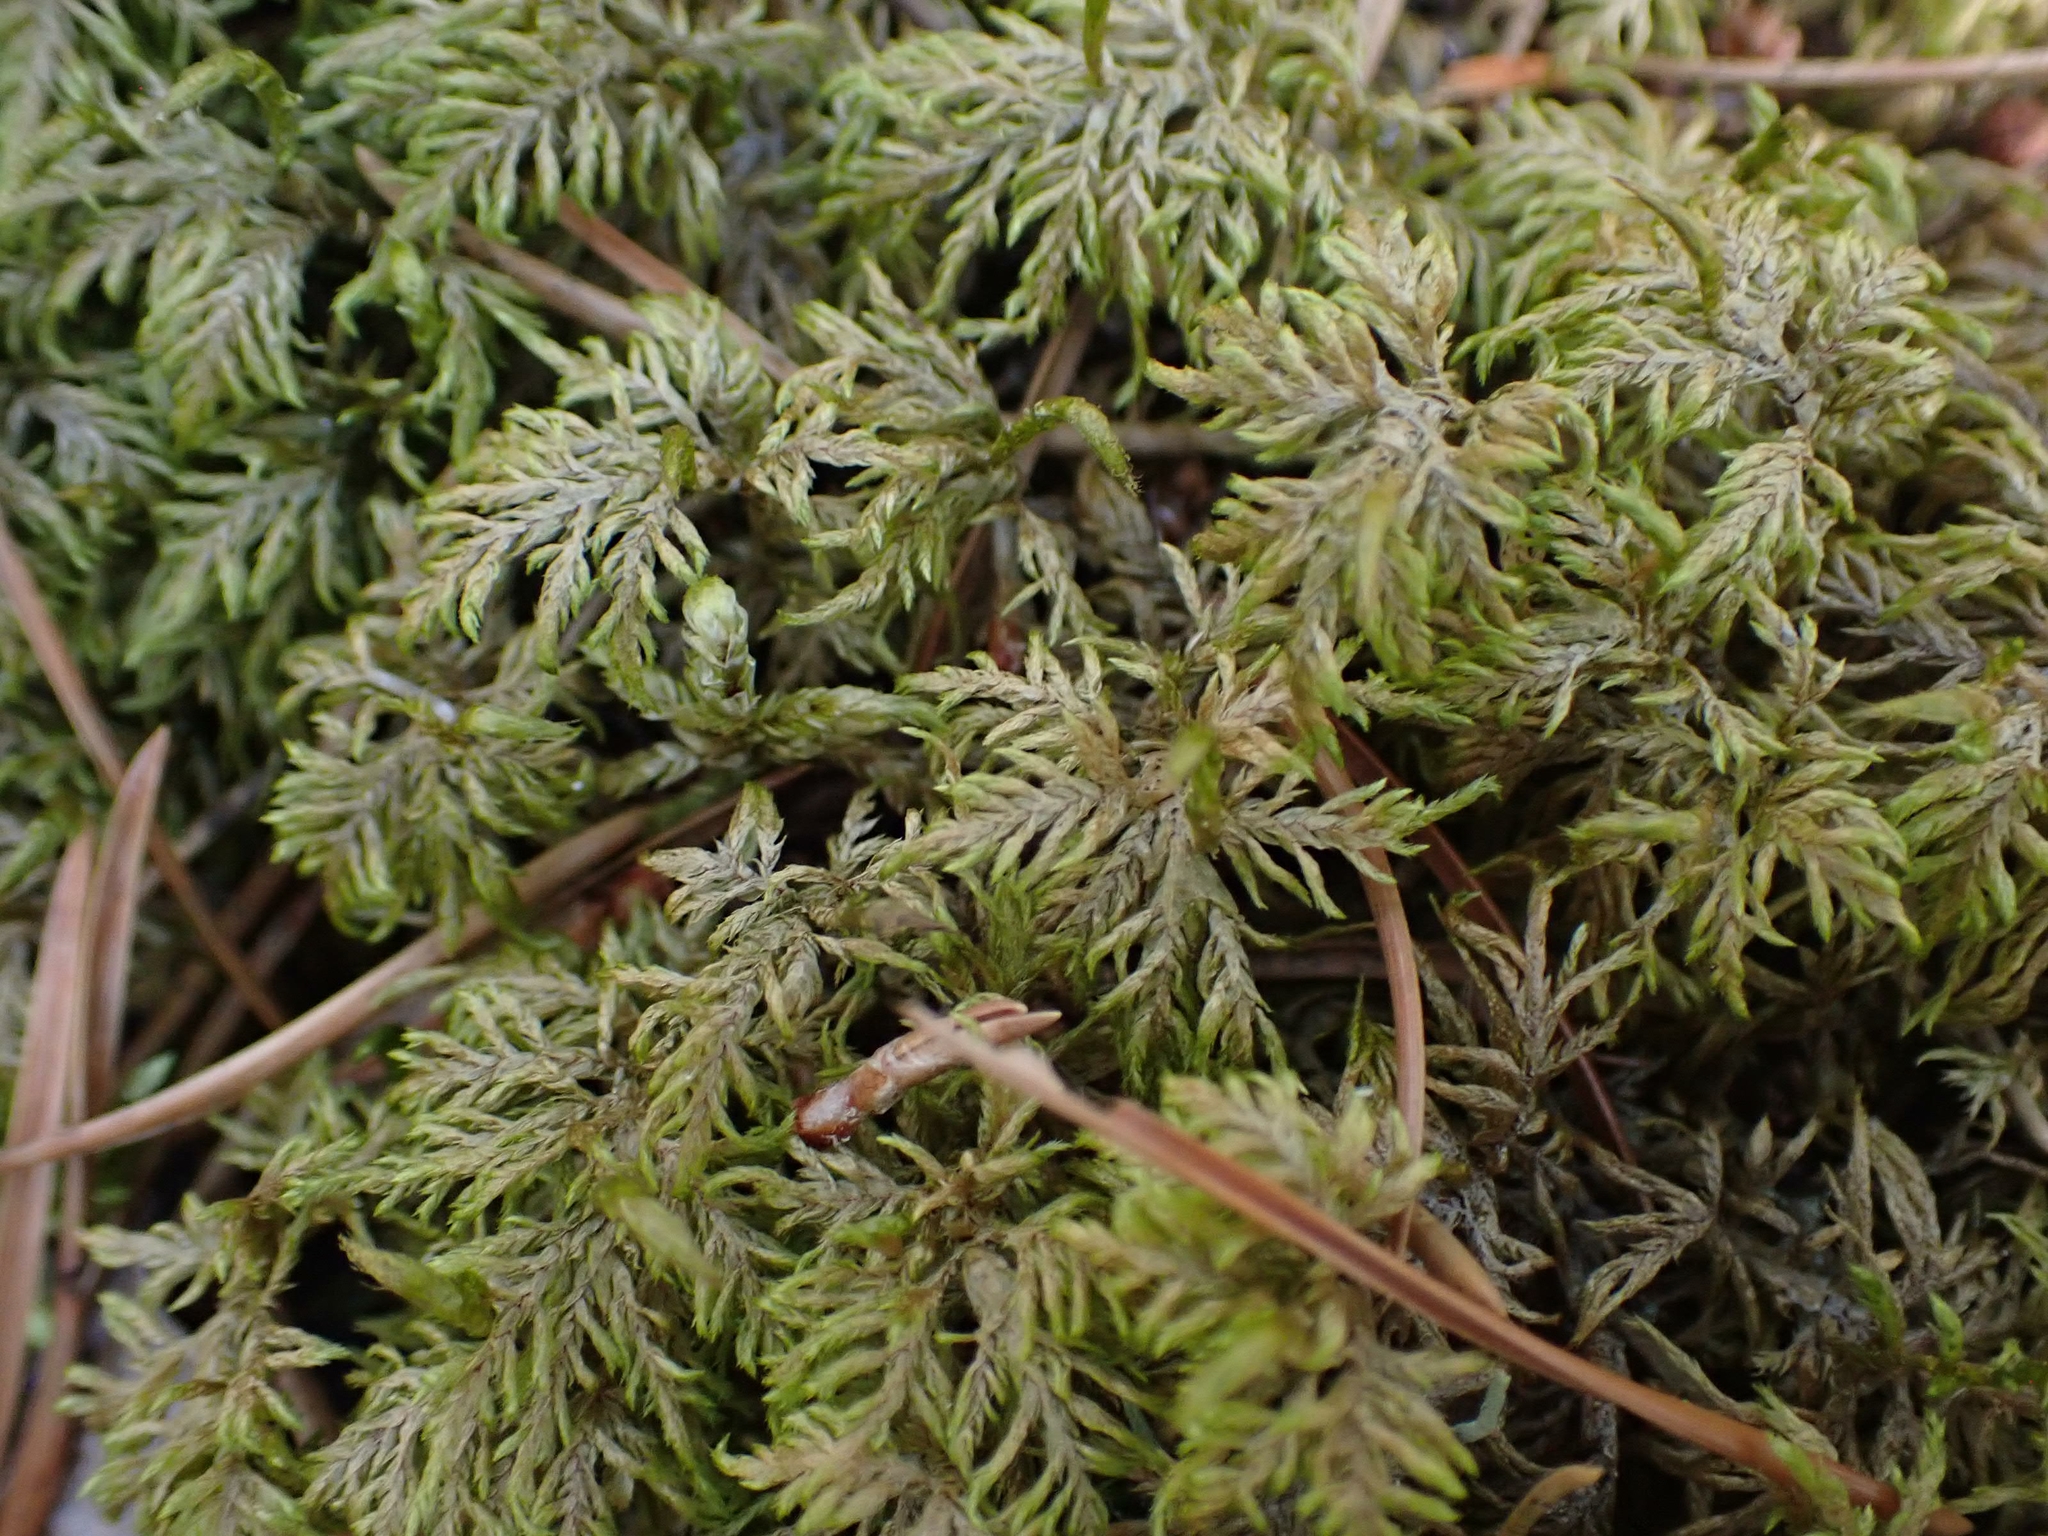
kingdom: Plantae
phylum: Bryophyta
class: Bryopsida
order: Hypnales
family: Hylocomiaceae
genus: Hylocomium
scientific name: Hylocomium splendens
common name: Stairstep moss
